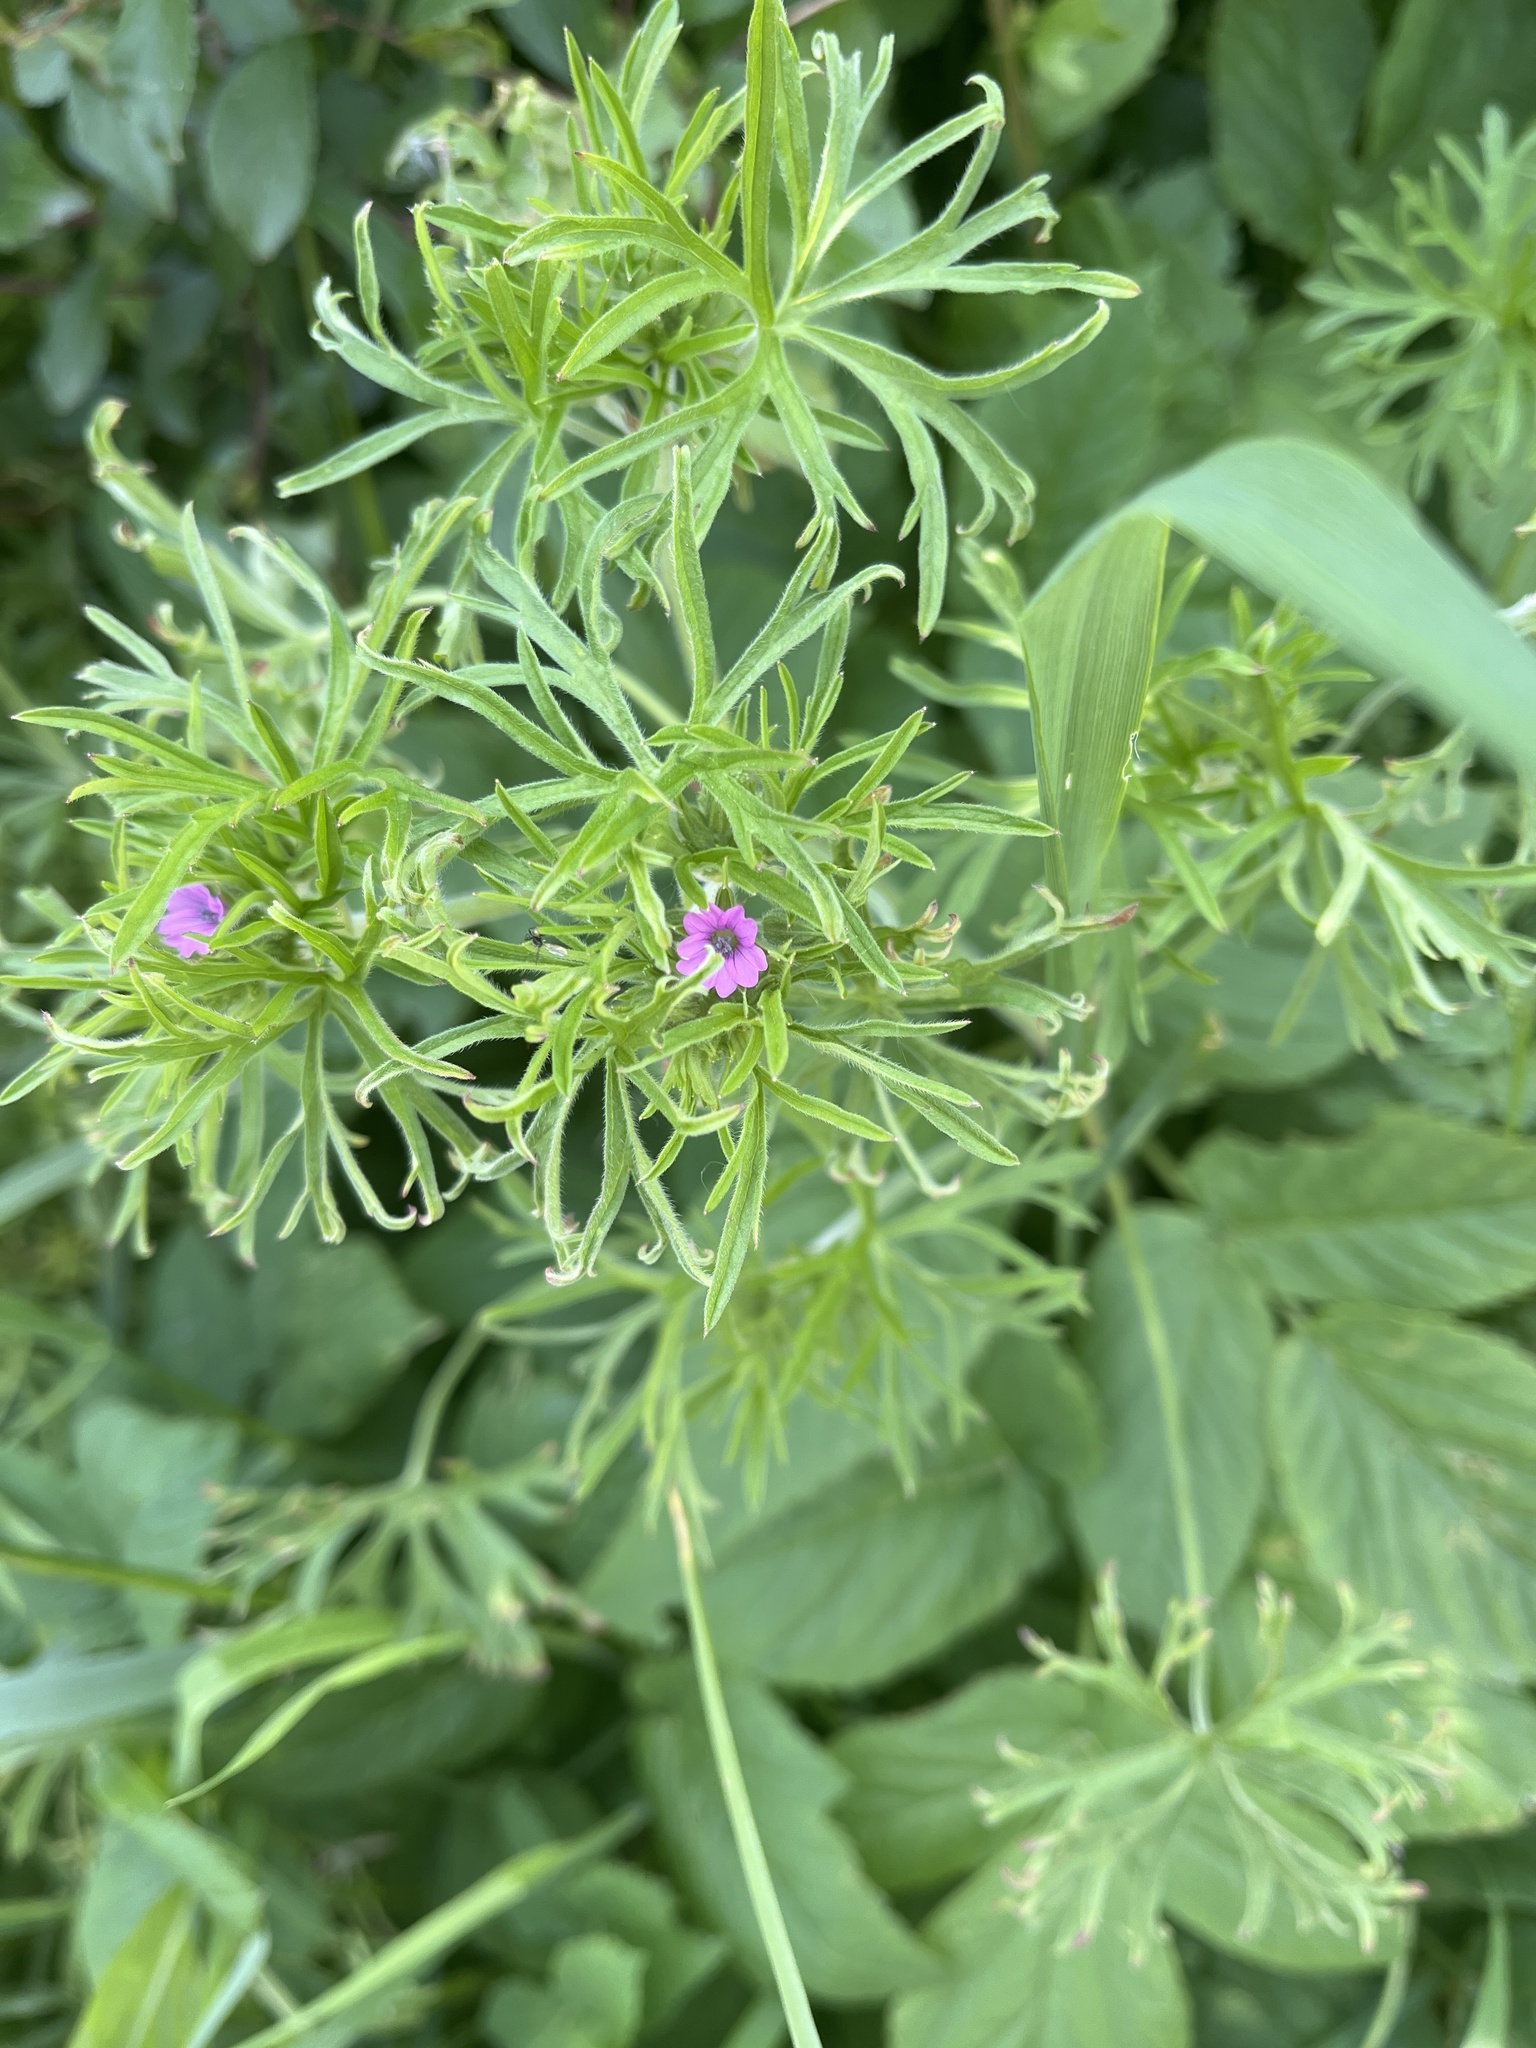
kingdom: Plantae
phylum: Tracheophyta
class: Magnoliopsida
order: Geraniales
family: Geraniaceae
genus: Geranium
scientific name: Geranium dissectum
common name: Cut-leaved crane's-bill
